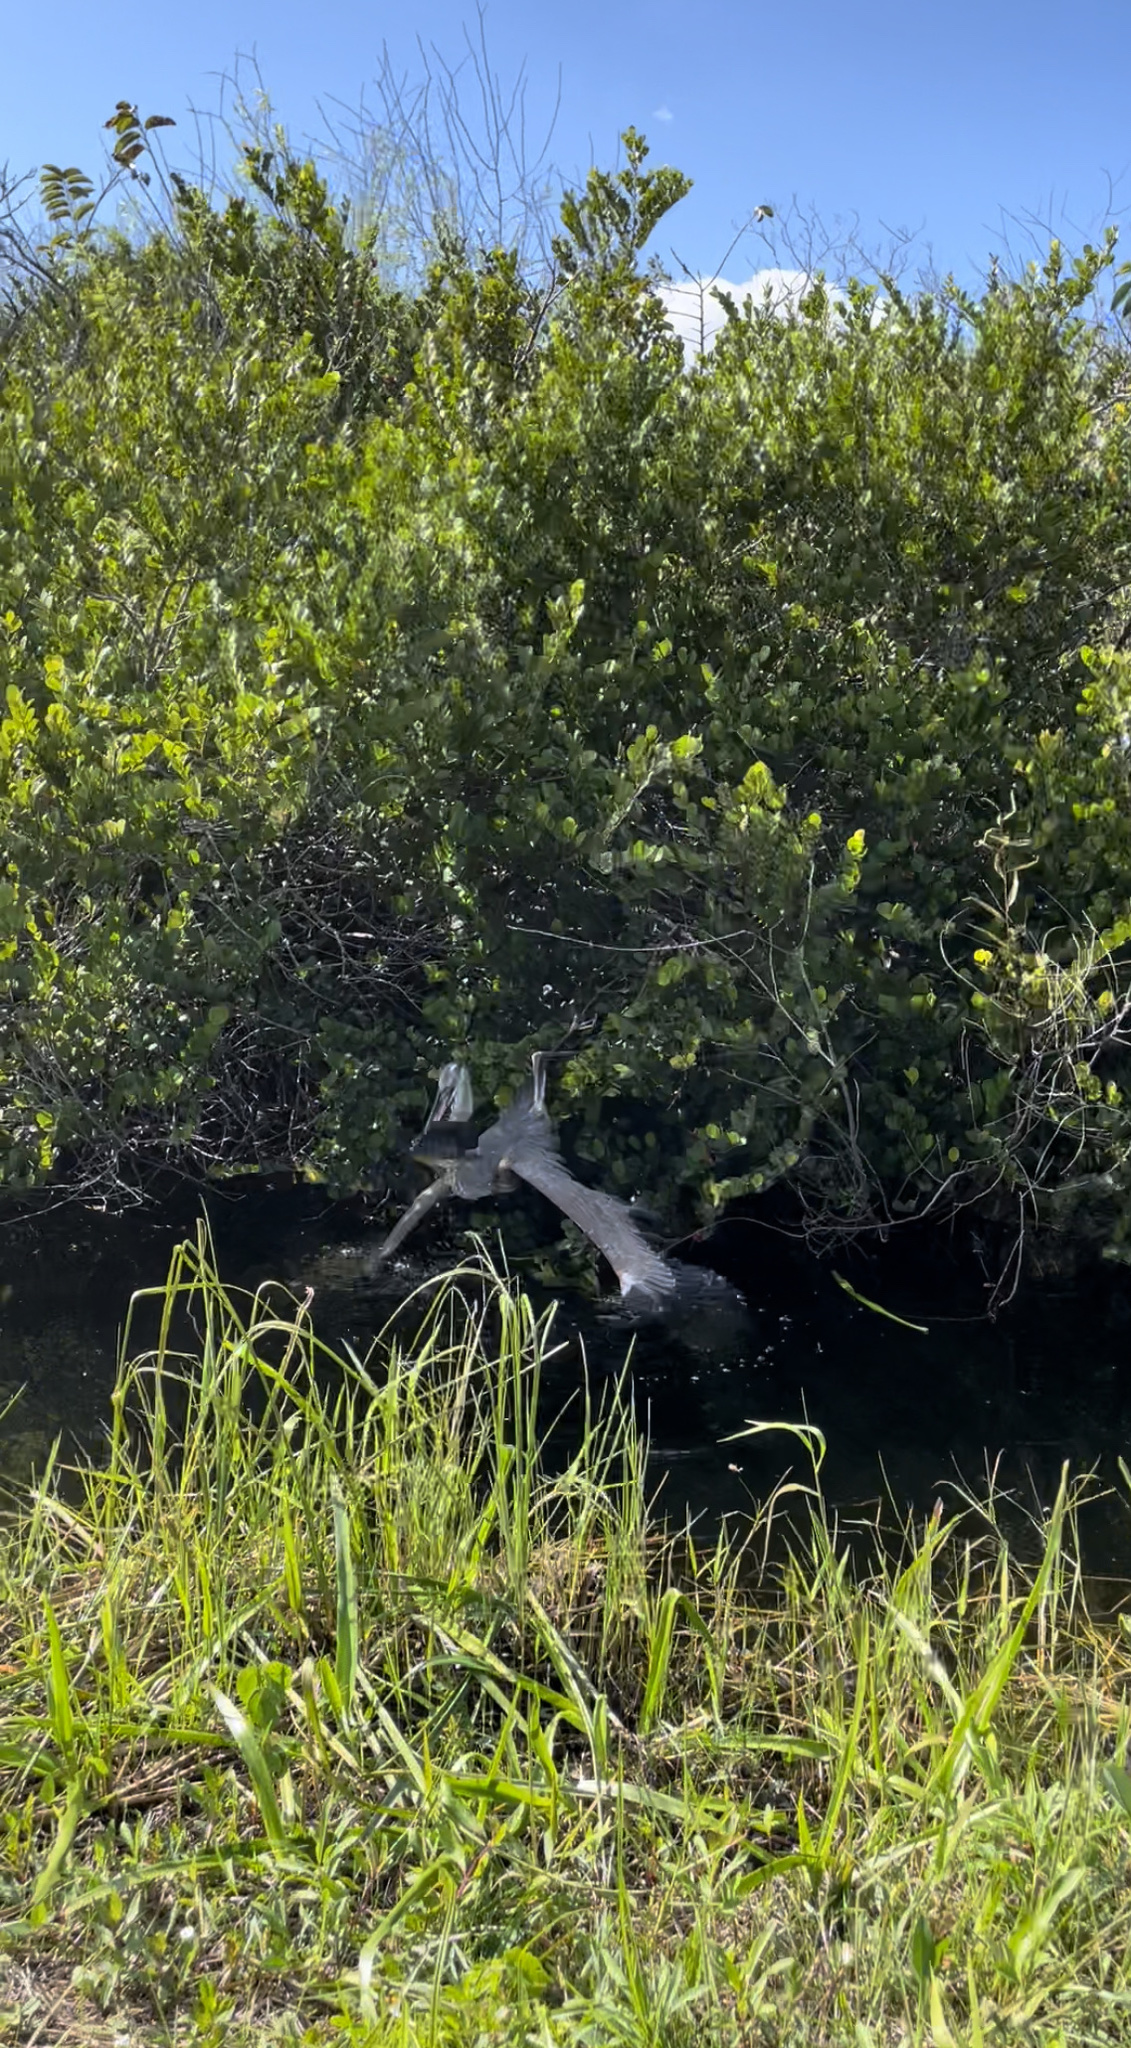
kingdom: Animalia
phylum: Chordata
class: Aves
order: Pelecaniformes
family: Ardeidae
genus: Ardea
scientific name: Ardea herodias
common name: Great blue heron
